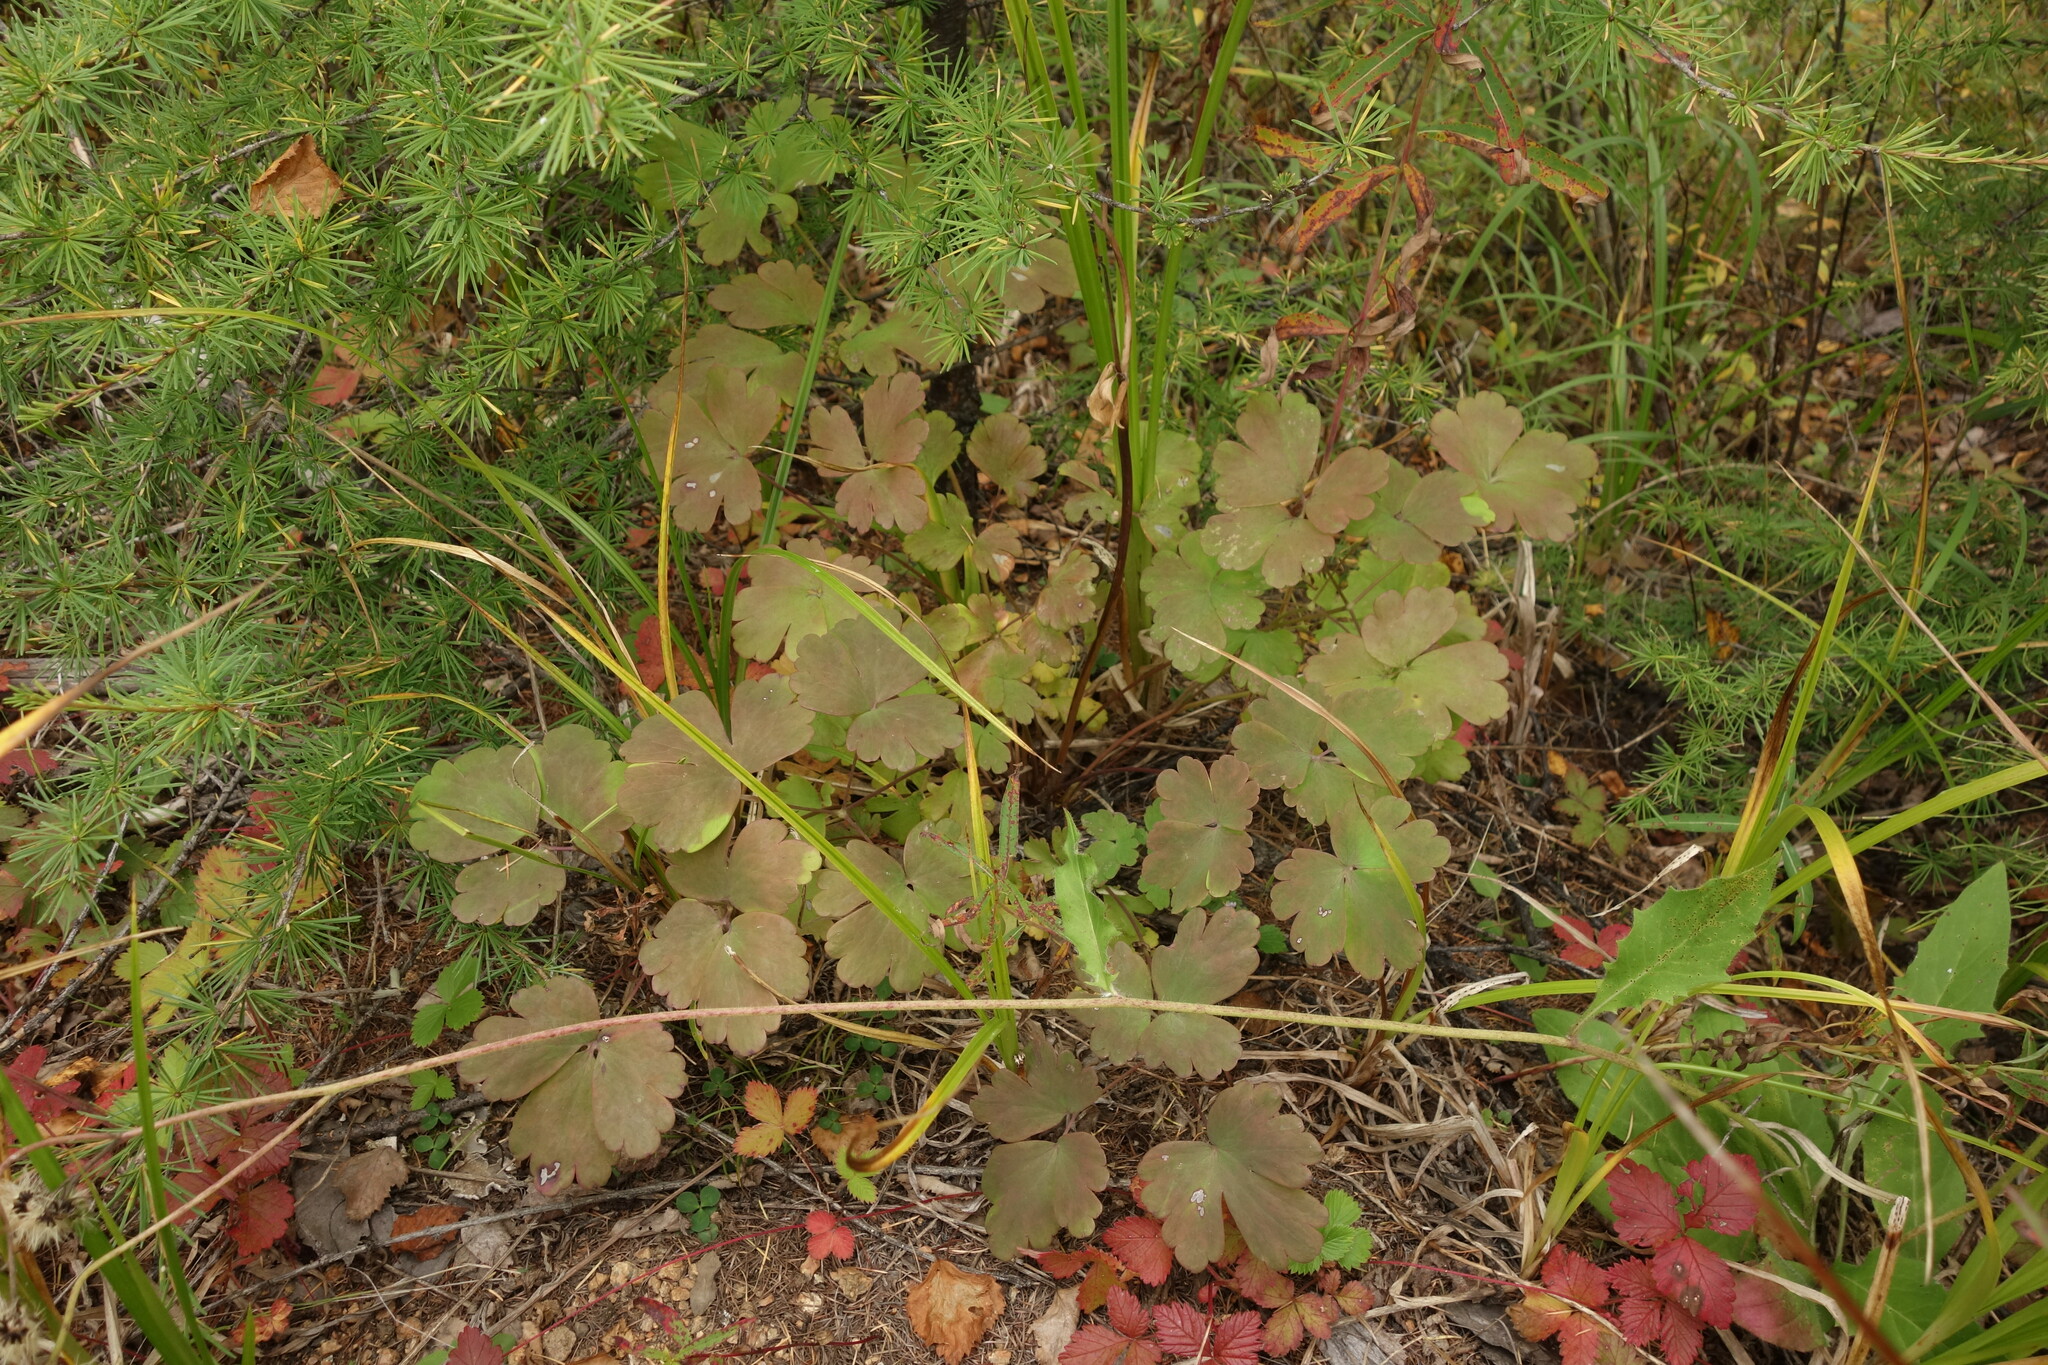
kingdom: Plantae
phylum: Tracheophyta
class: Magnoliopsida
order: Rosales
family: Rosaceae
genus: Rubus
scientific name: Rubus arcticus
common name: Arctic bramble
